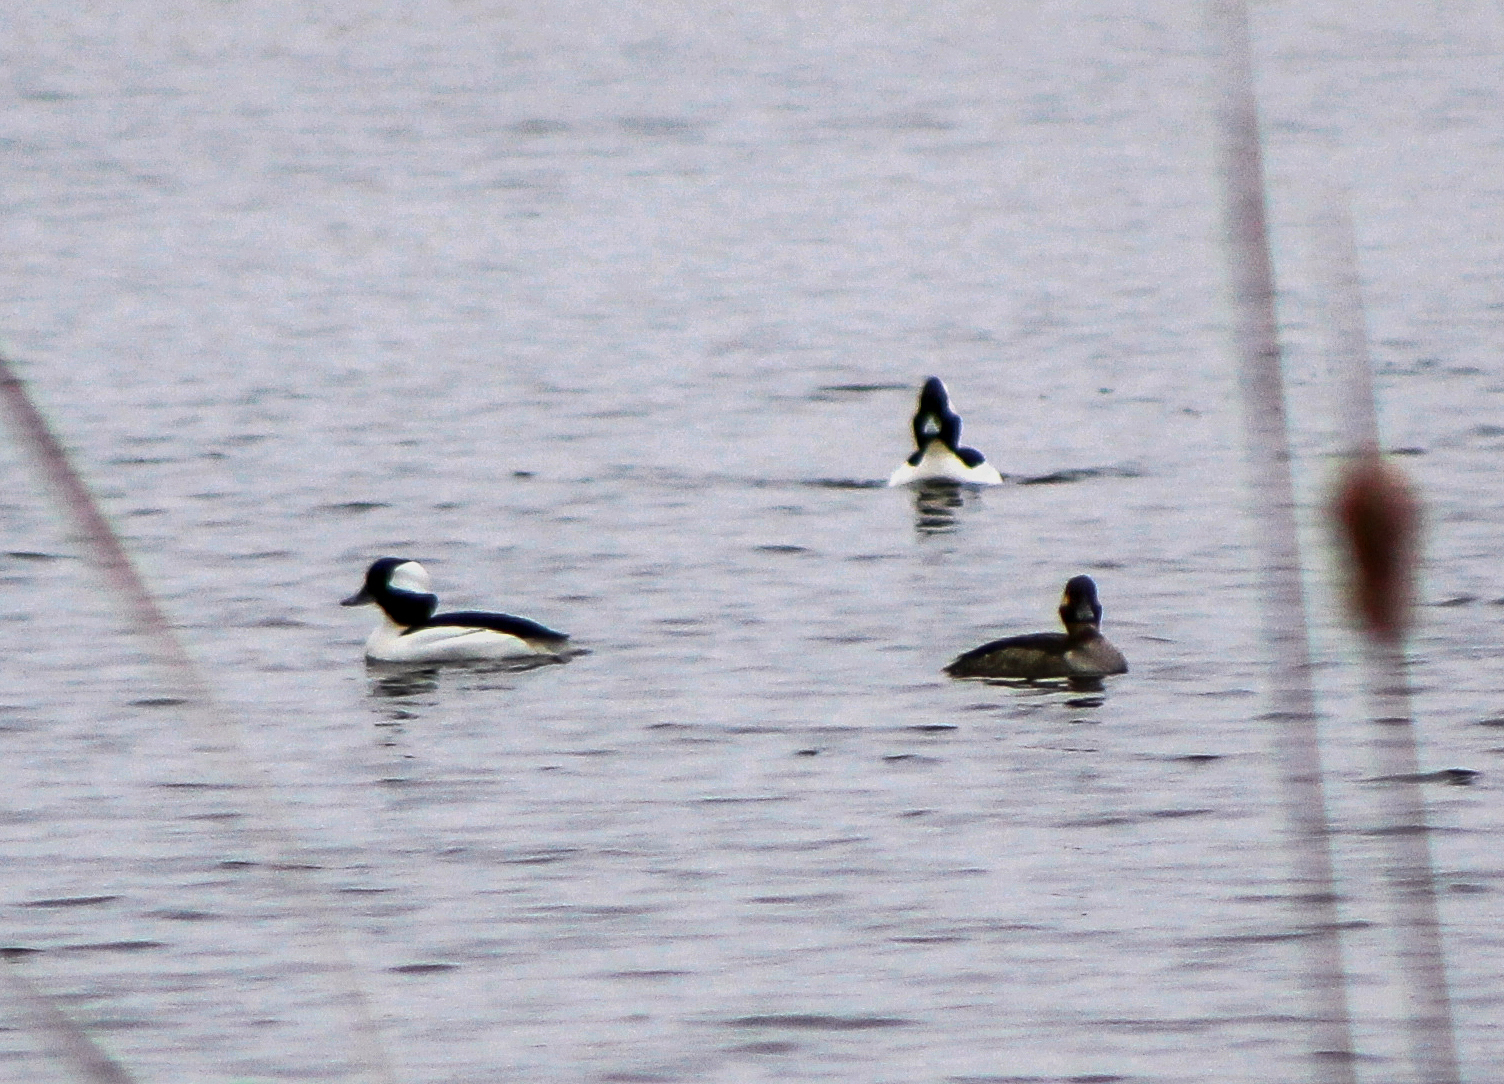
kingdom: Animalia
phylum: Chordata
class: Aves
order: Anseriformes
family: Anatidae
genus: Bucephala
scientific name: Bucephala albeola
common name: Bufflehead
